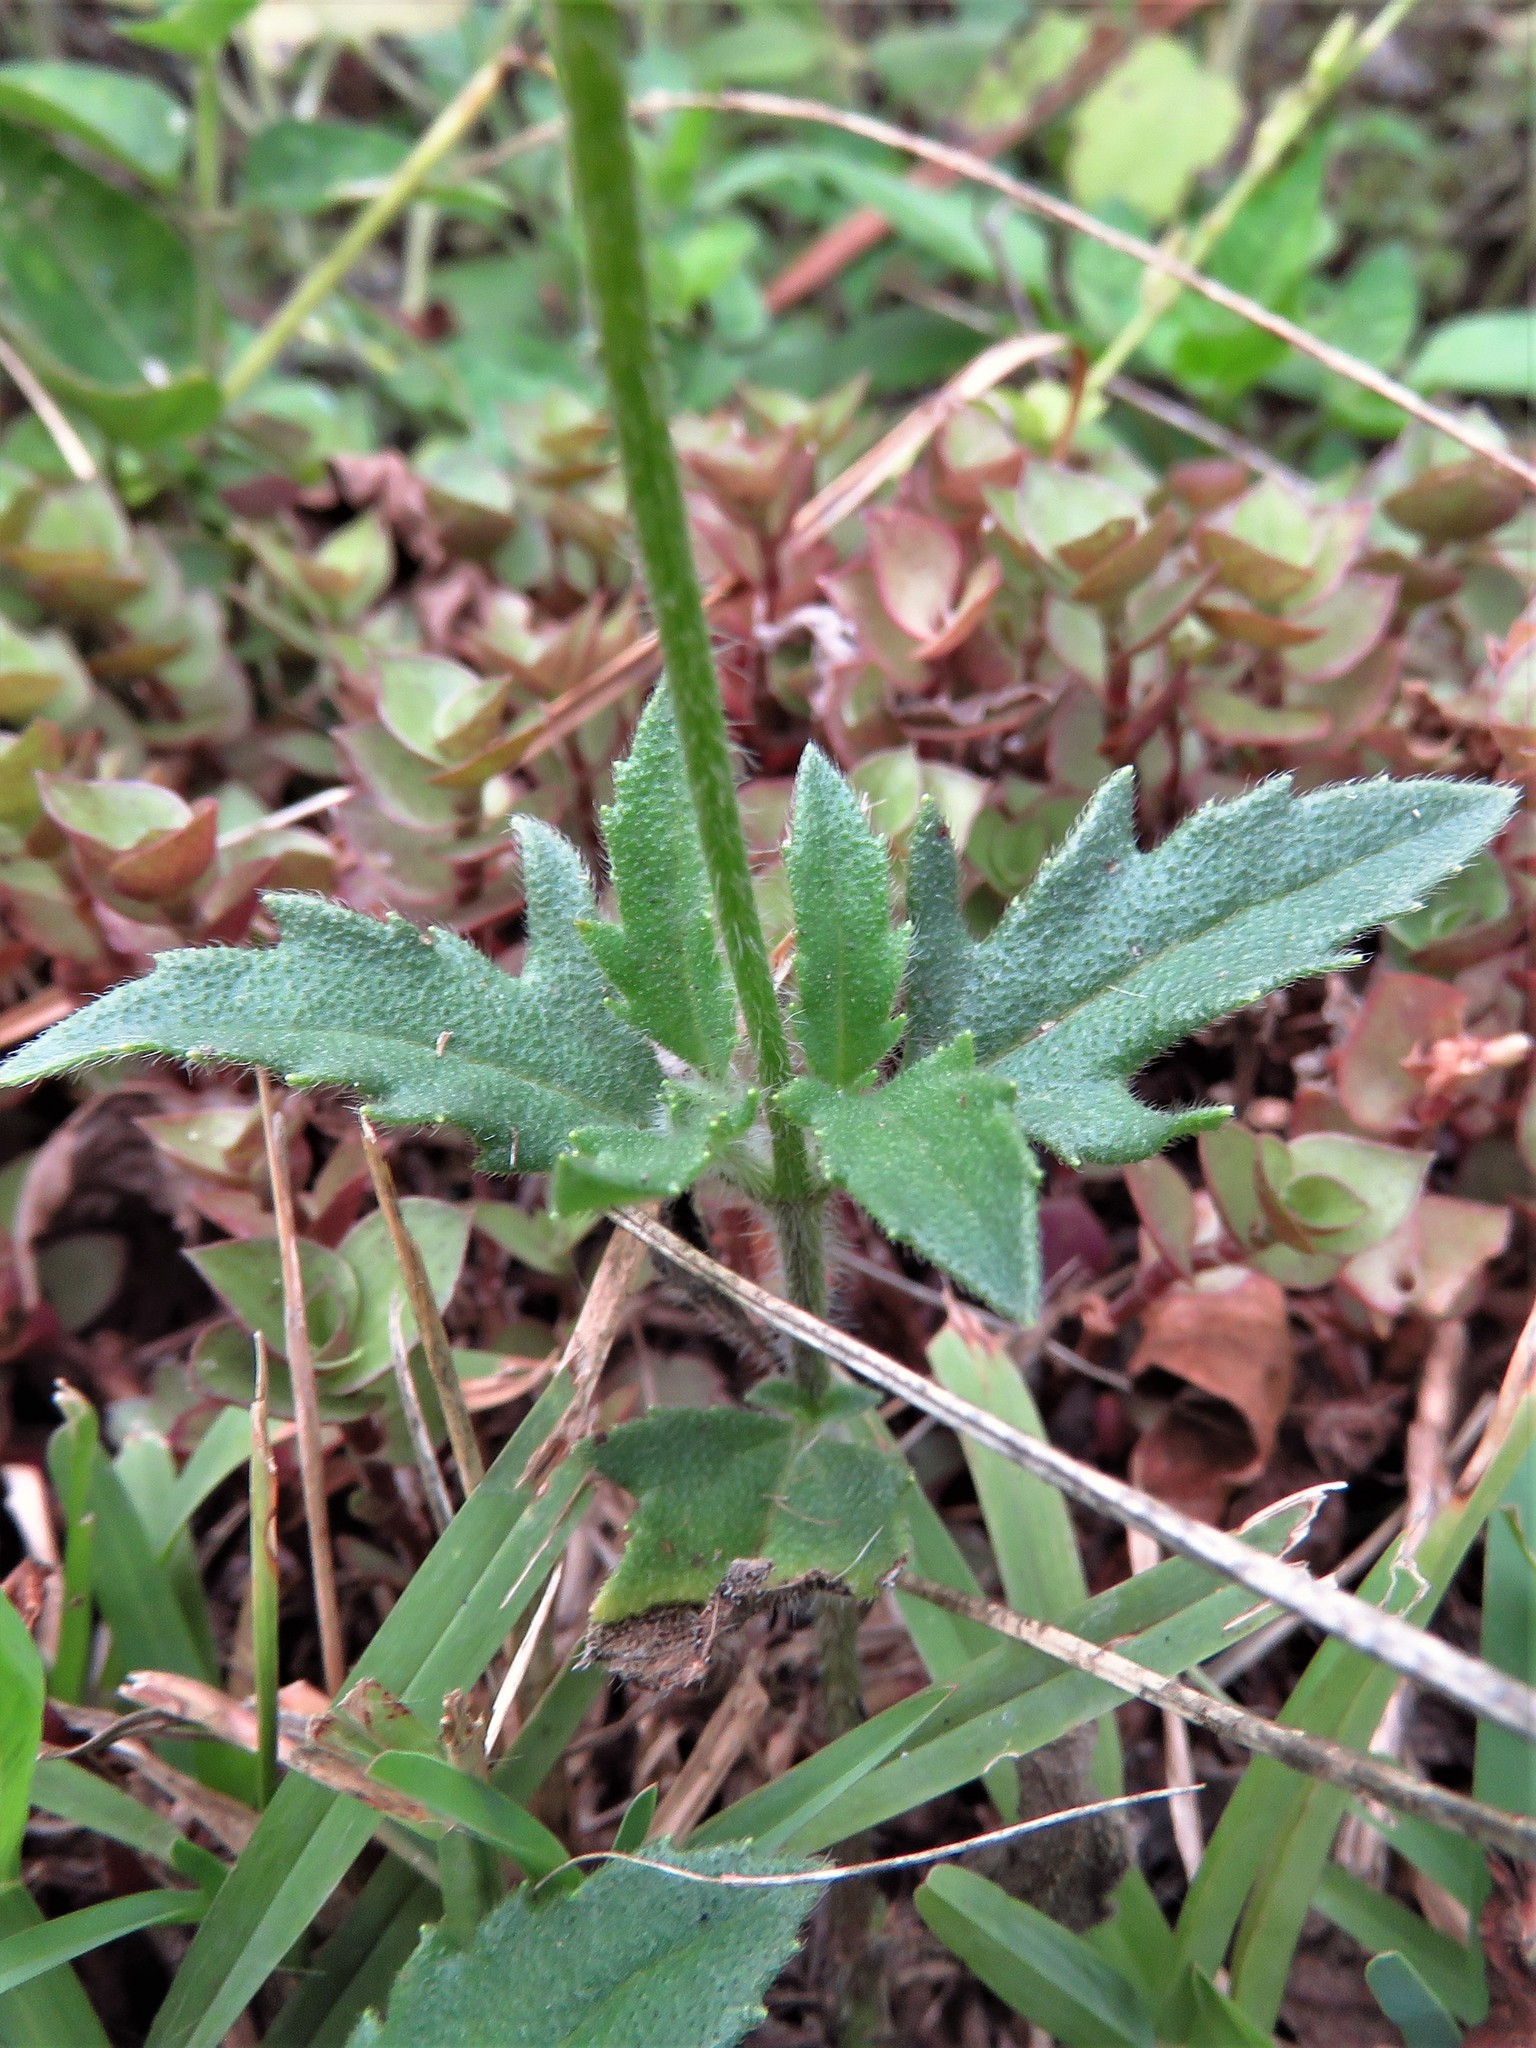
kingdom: Plantae
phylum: Tracheophyta
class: Magnoliopsida
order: Asterales
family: Asteraceae
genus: Tridax
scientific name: Tridax procumbens
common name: Coatbuttons
